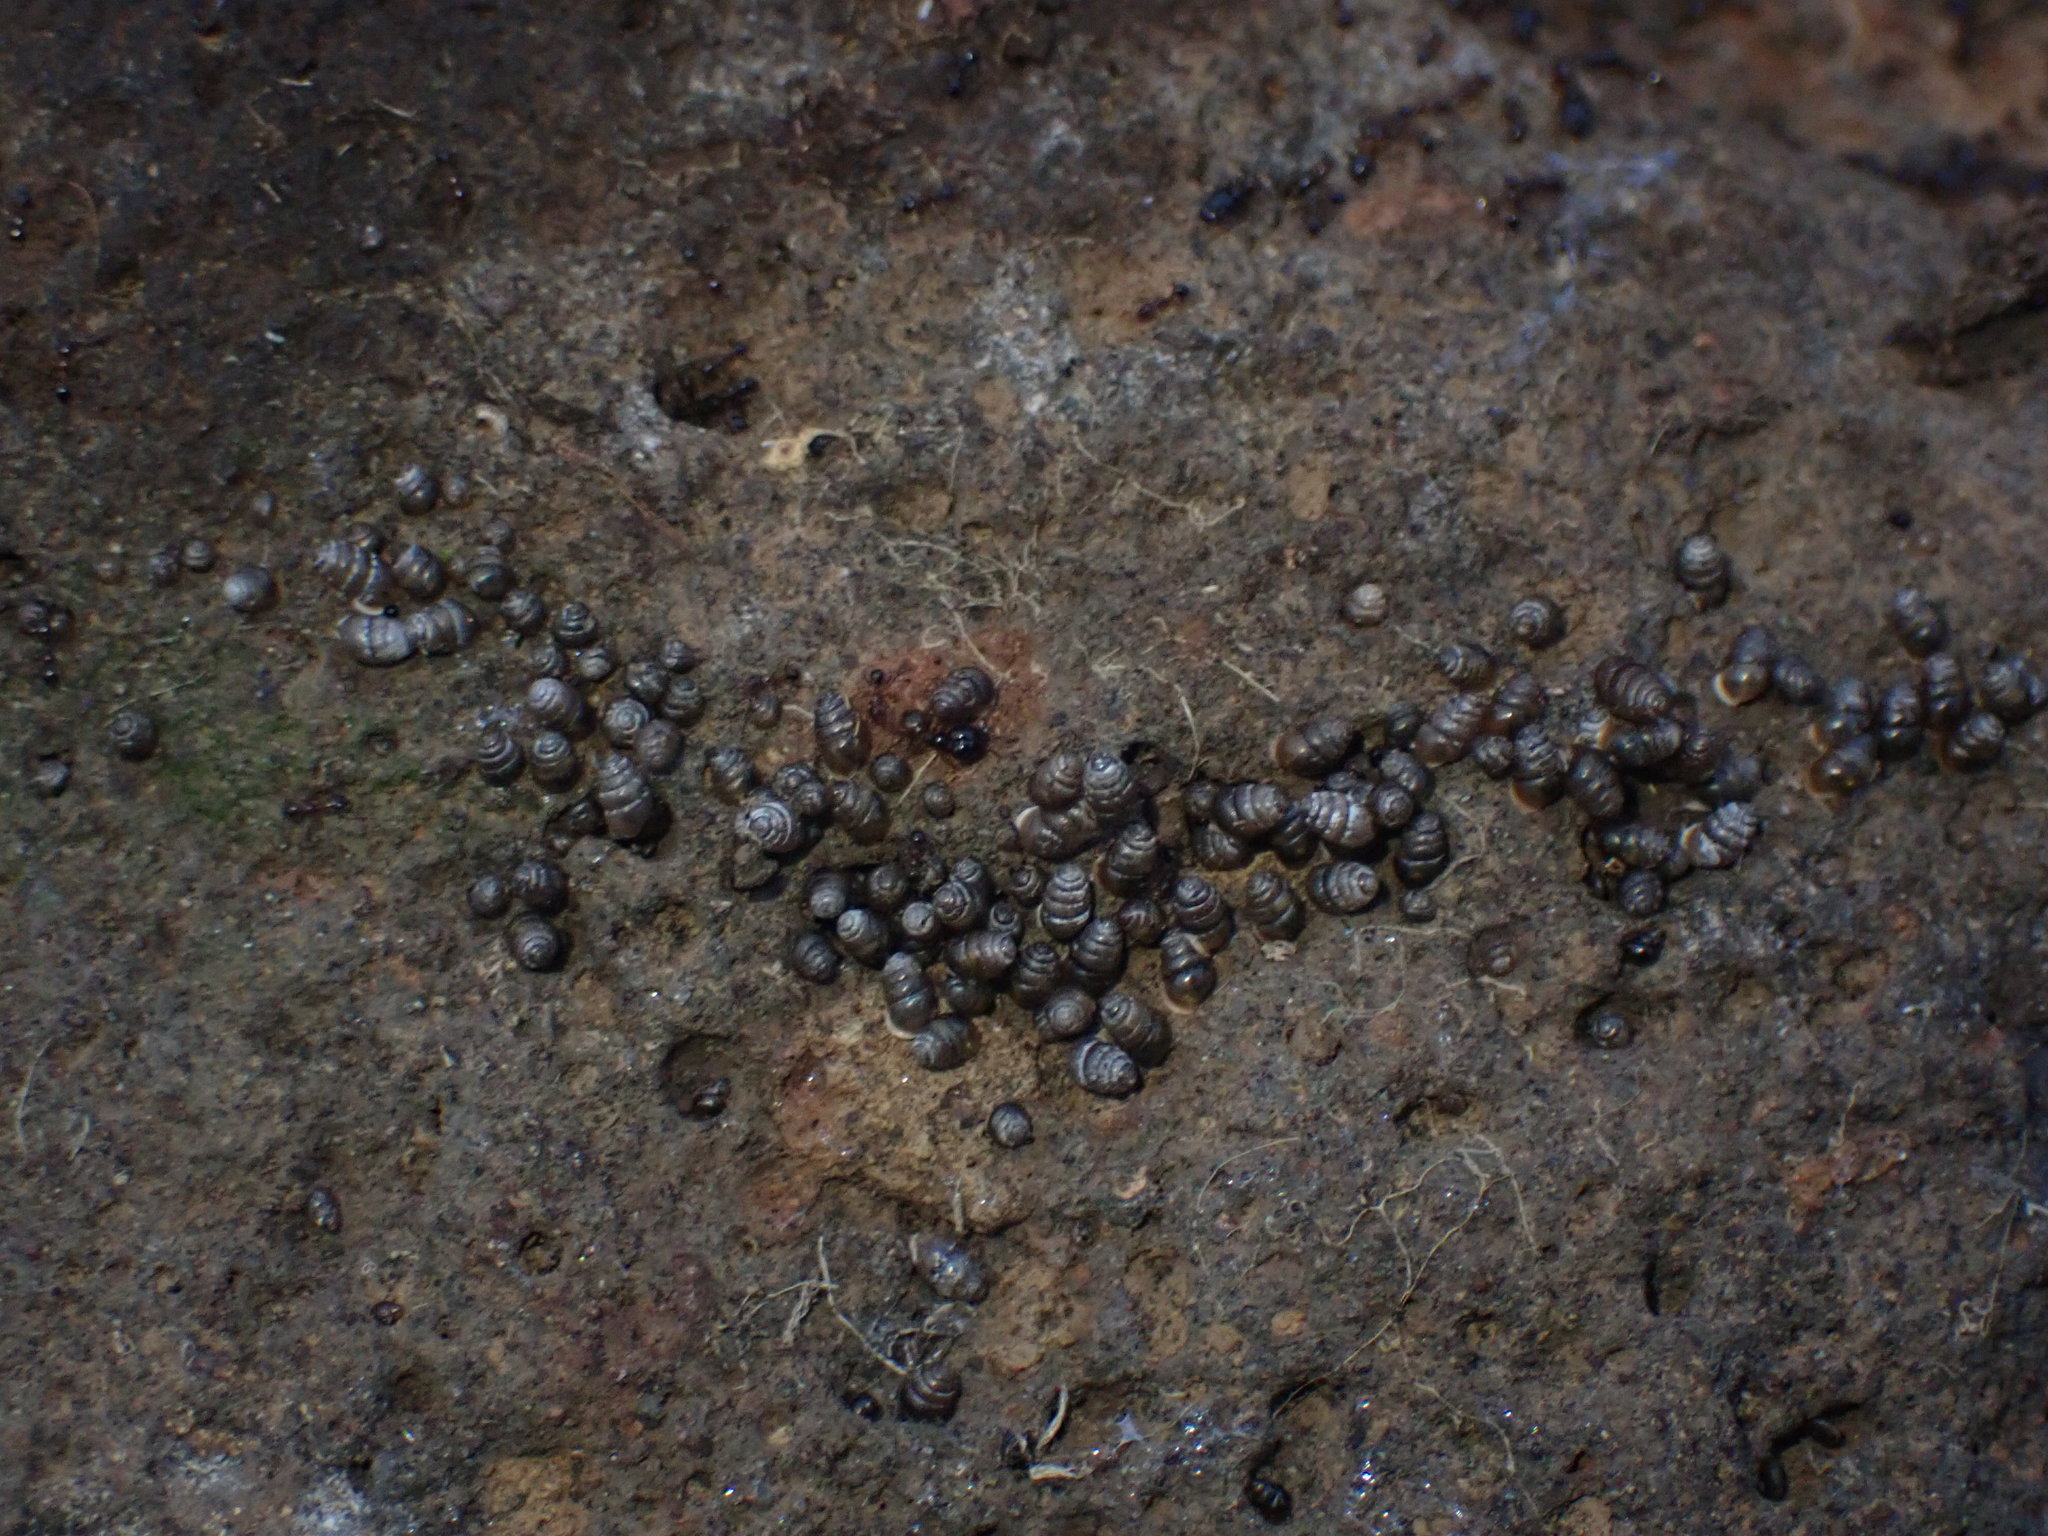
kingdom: Animalia
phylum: Mollusca
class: Gastropoda
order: Stylommatophora
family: Lauriidae
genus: Lauria
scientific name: Lauria cylindracea
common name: Common chrysalis snail
